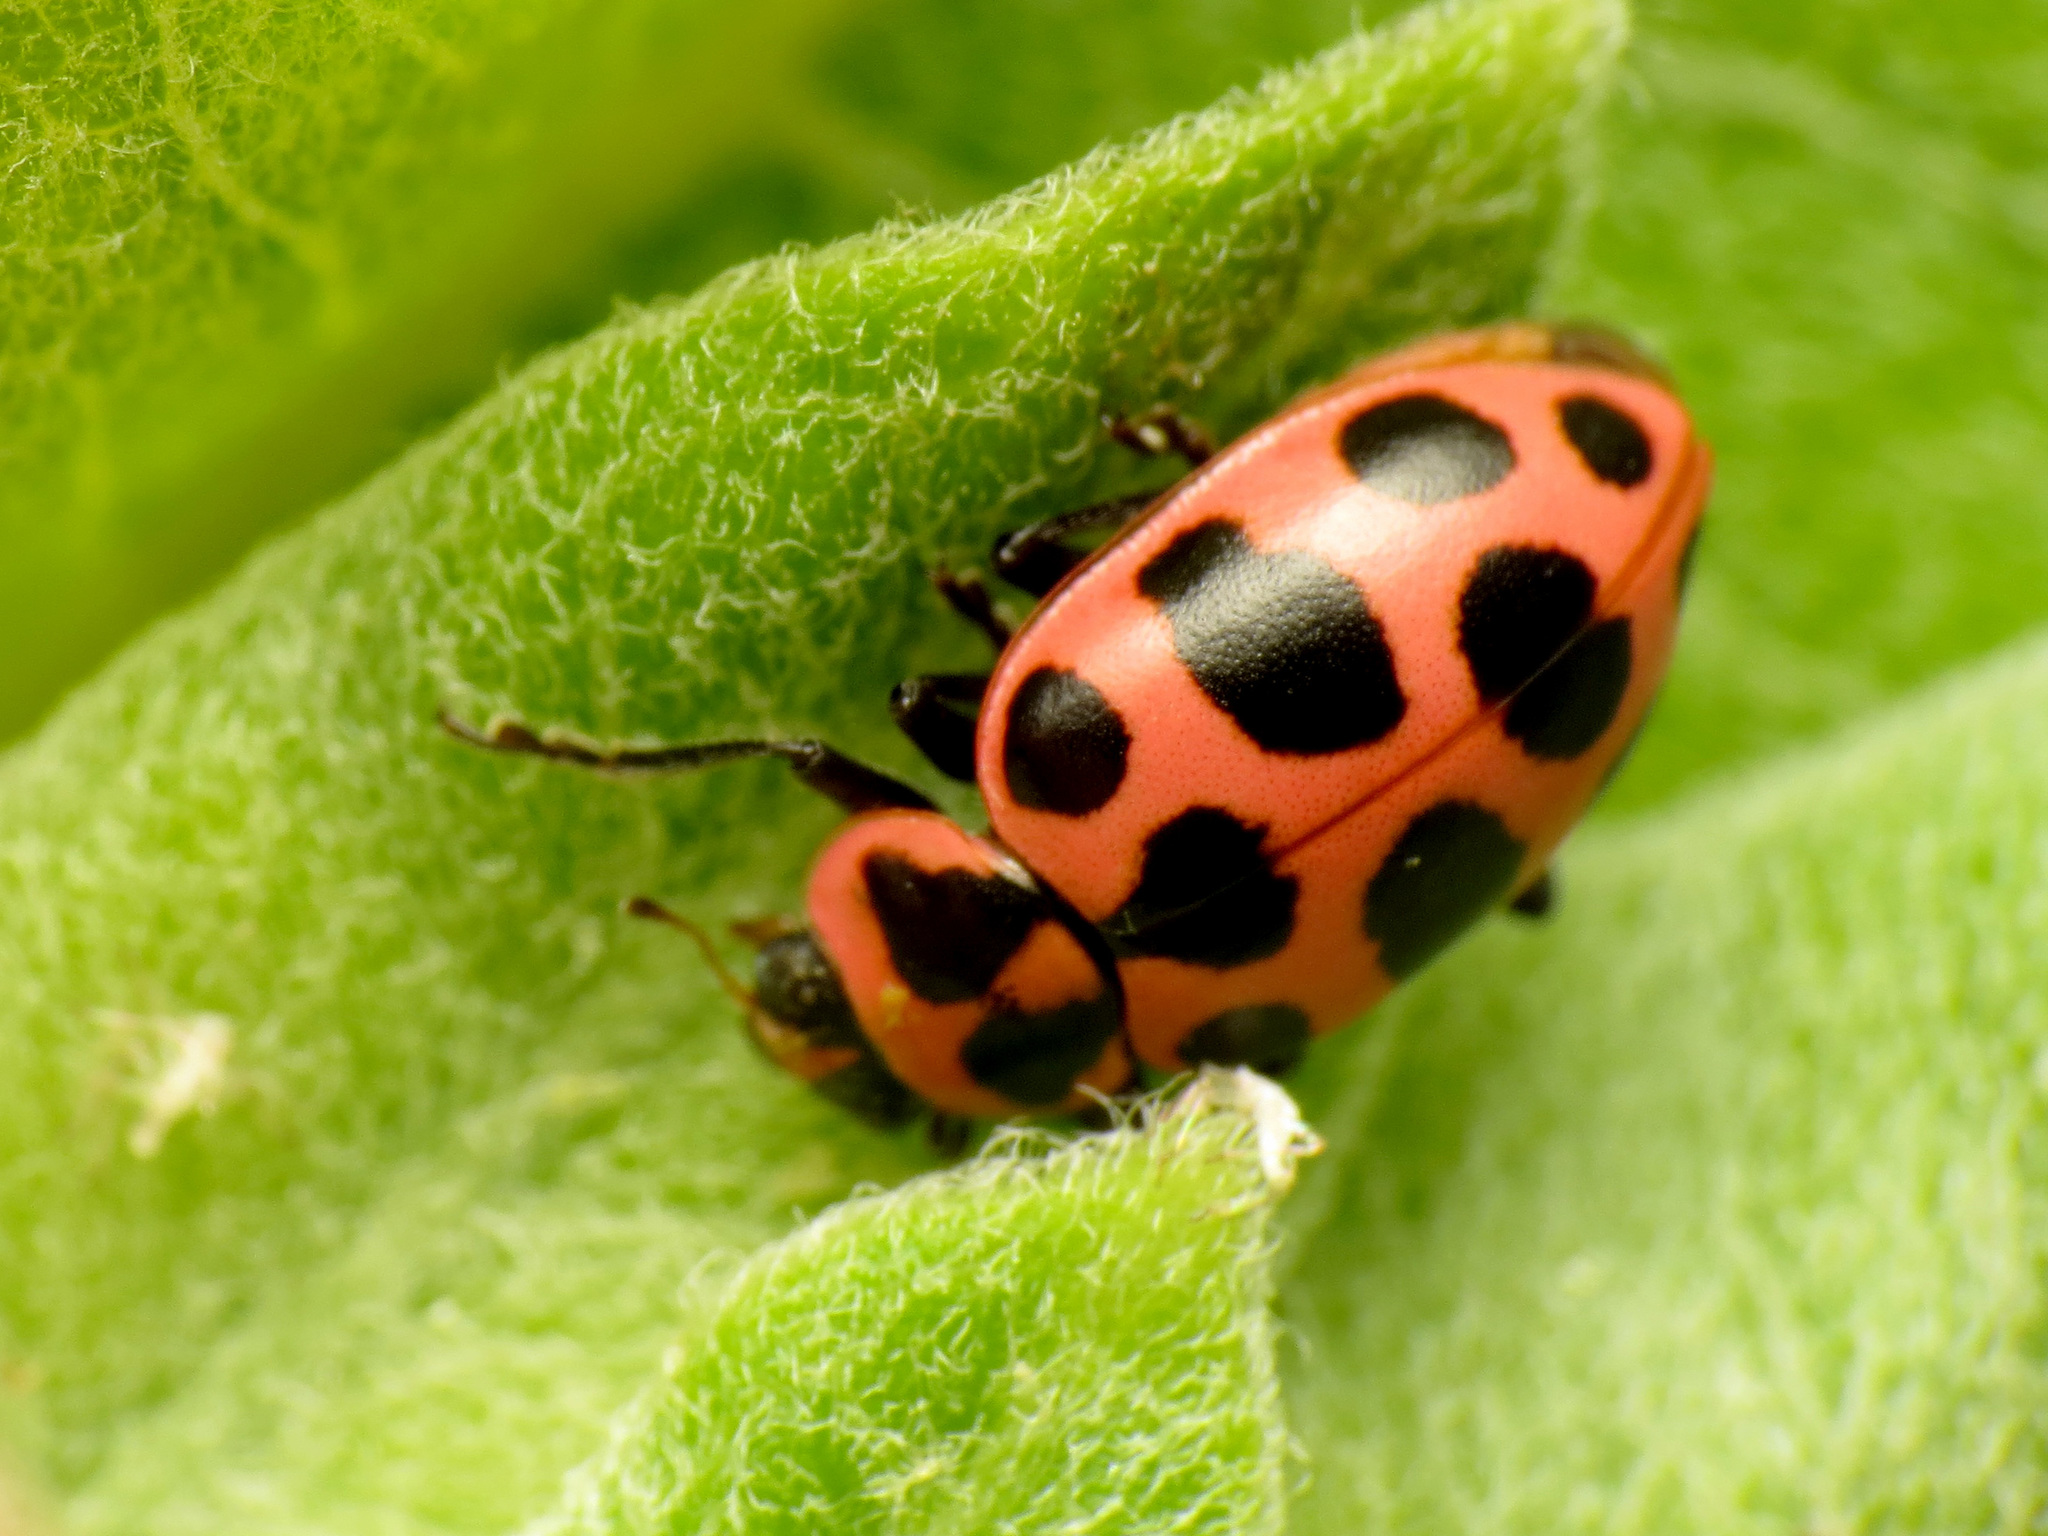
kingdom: Animalia
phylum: Arthropoda
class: Insecta
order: Coleoptera
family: Coccinellidae
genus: Coleomegilla
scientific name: Coleomegilla maculata
